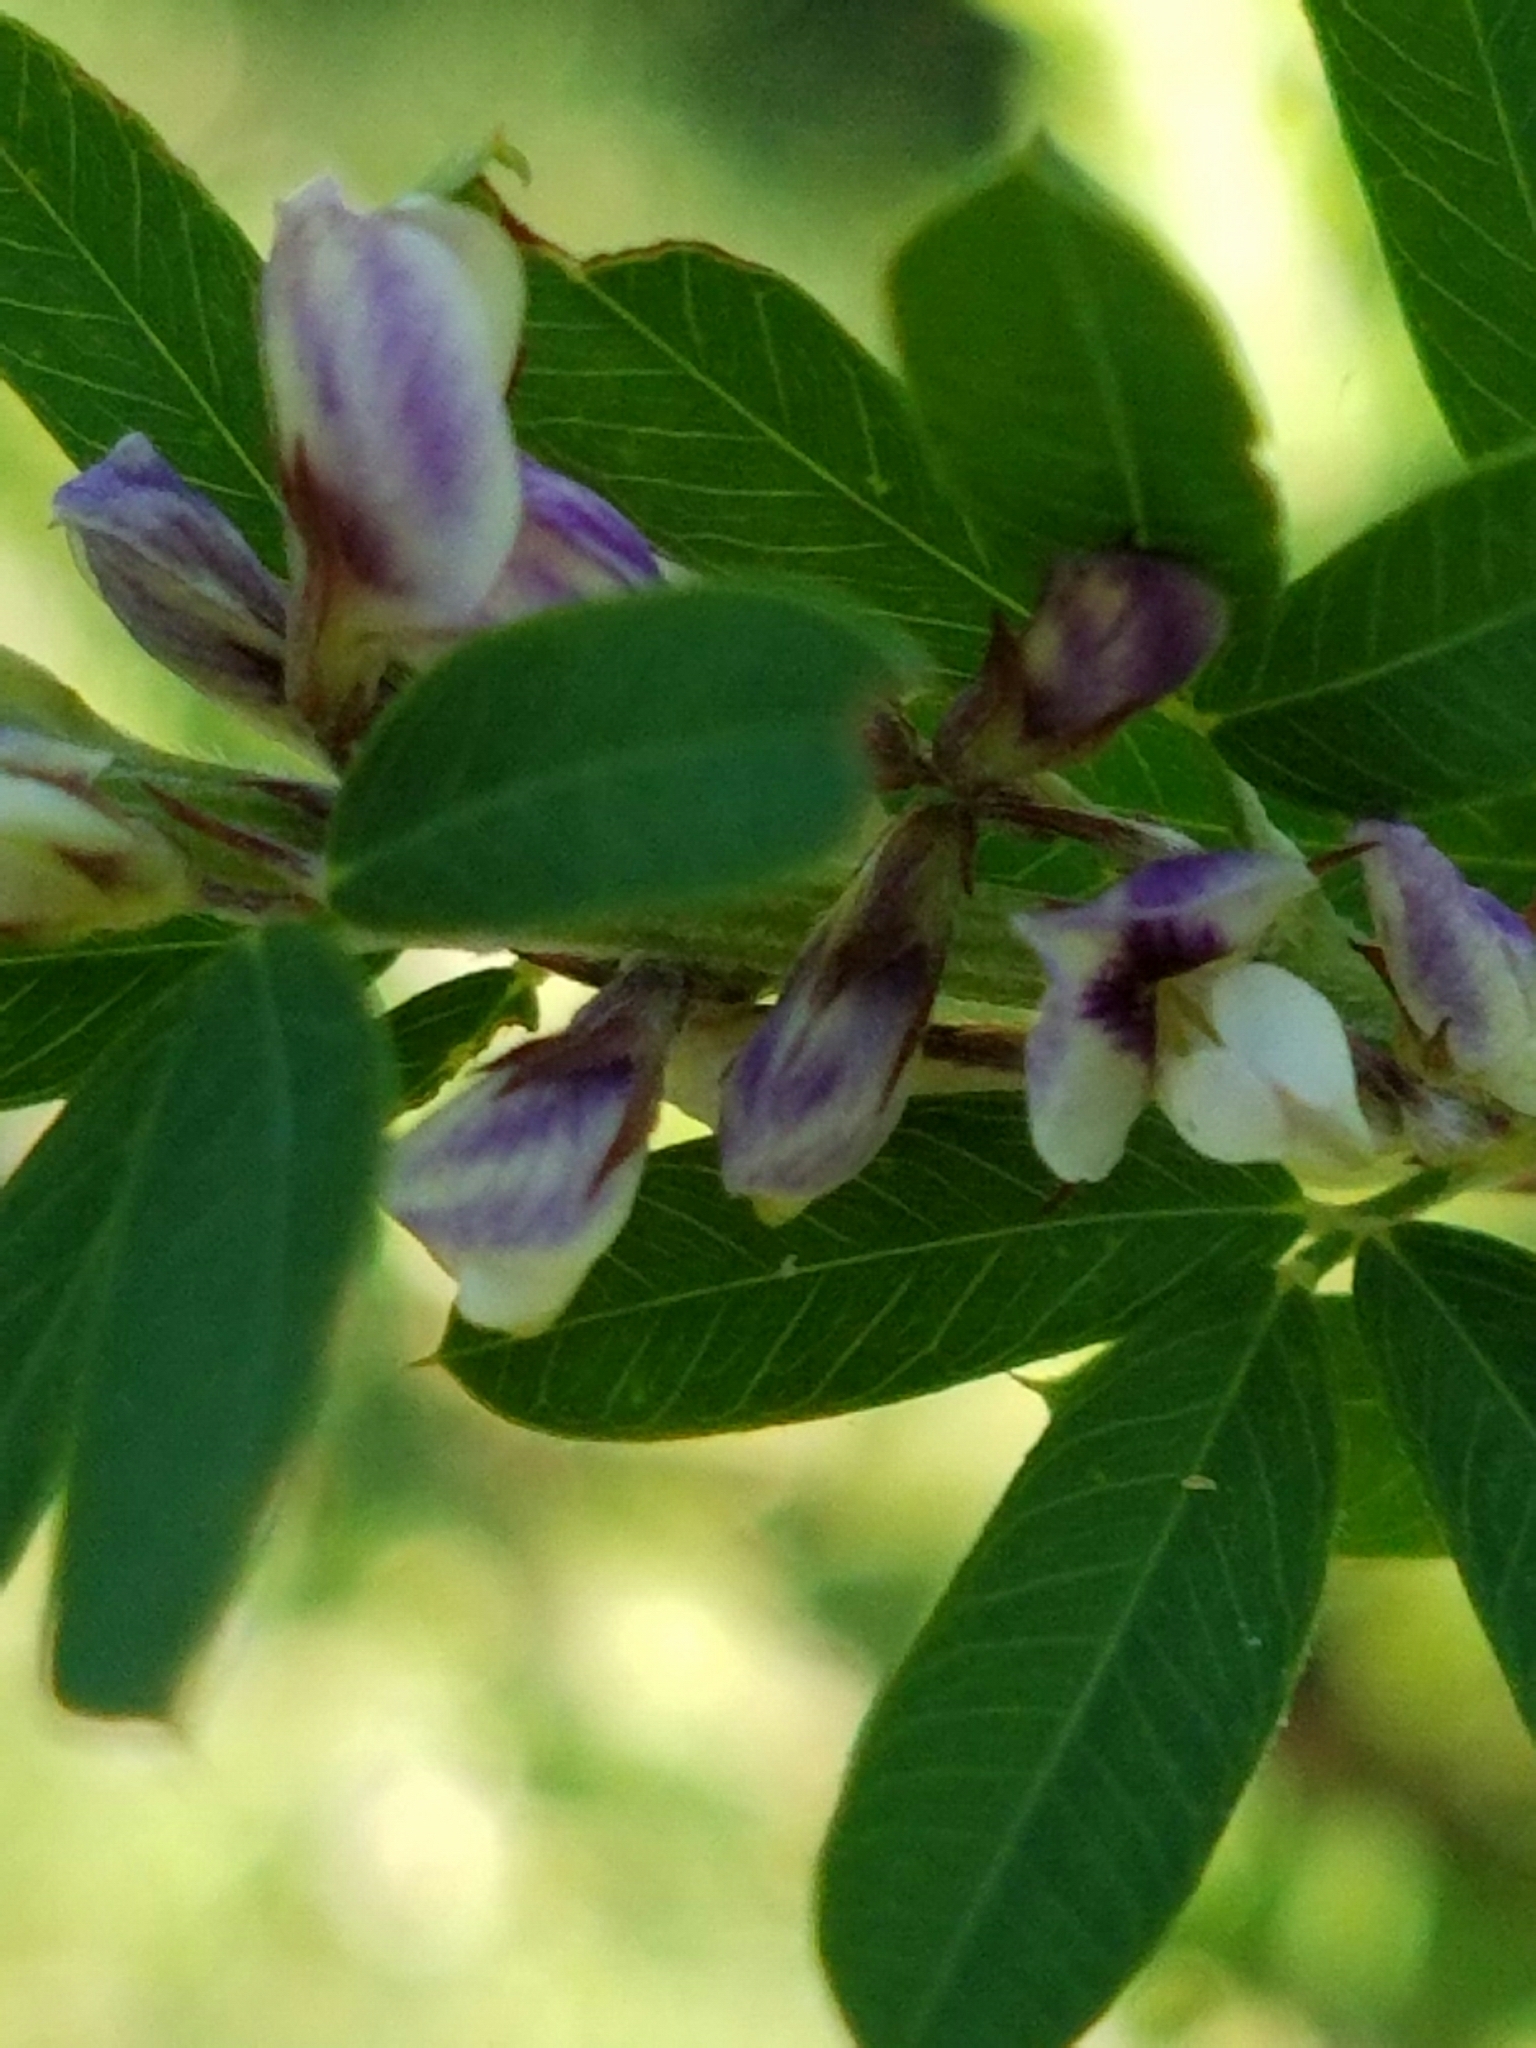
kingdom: Plantae
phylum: Tracheophyta
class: Magnoliopsida
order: Fabales
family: Fabaceae
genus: Lespedeza
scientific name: Lespedeza cuneata
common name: Chinese bush-clover
